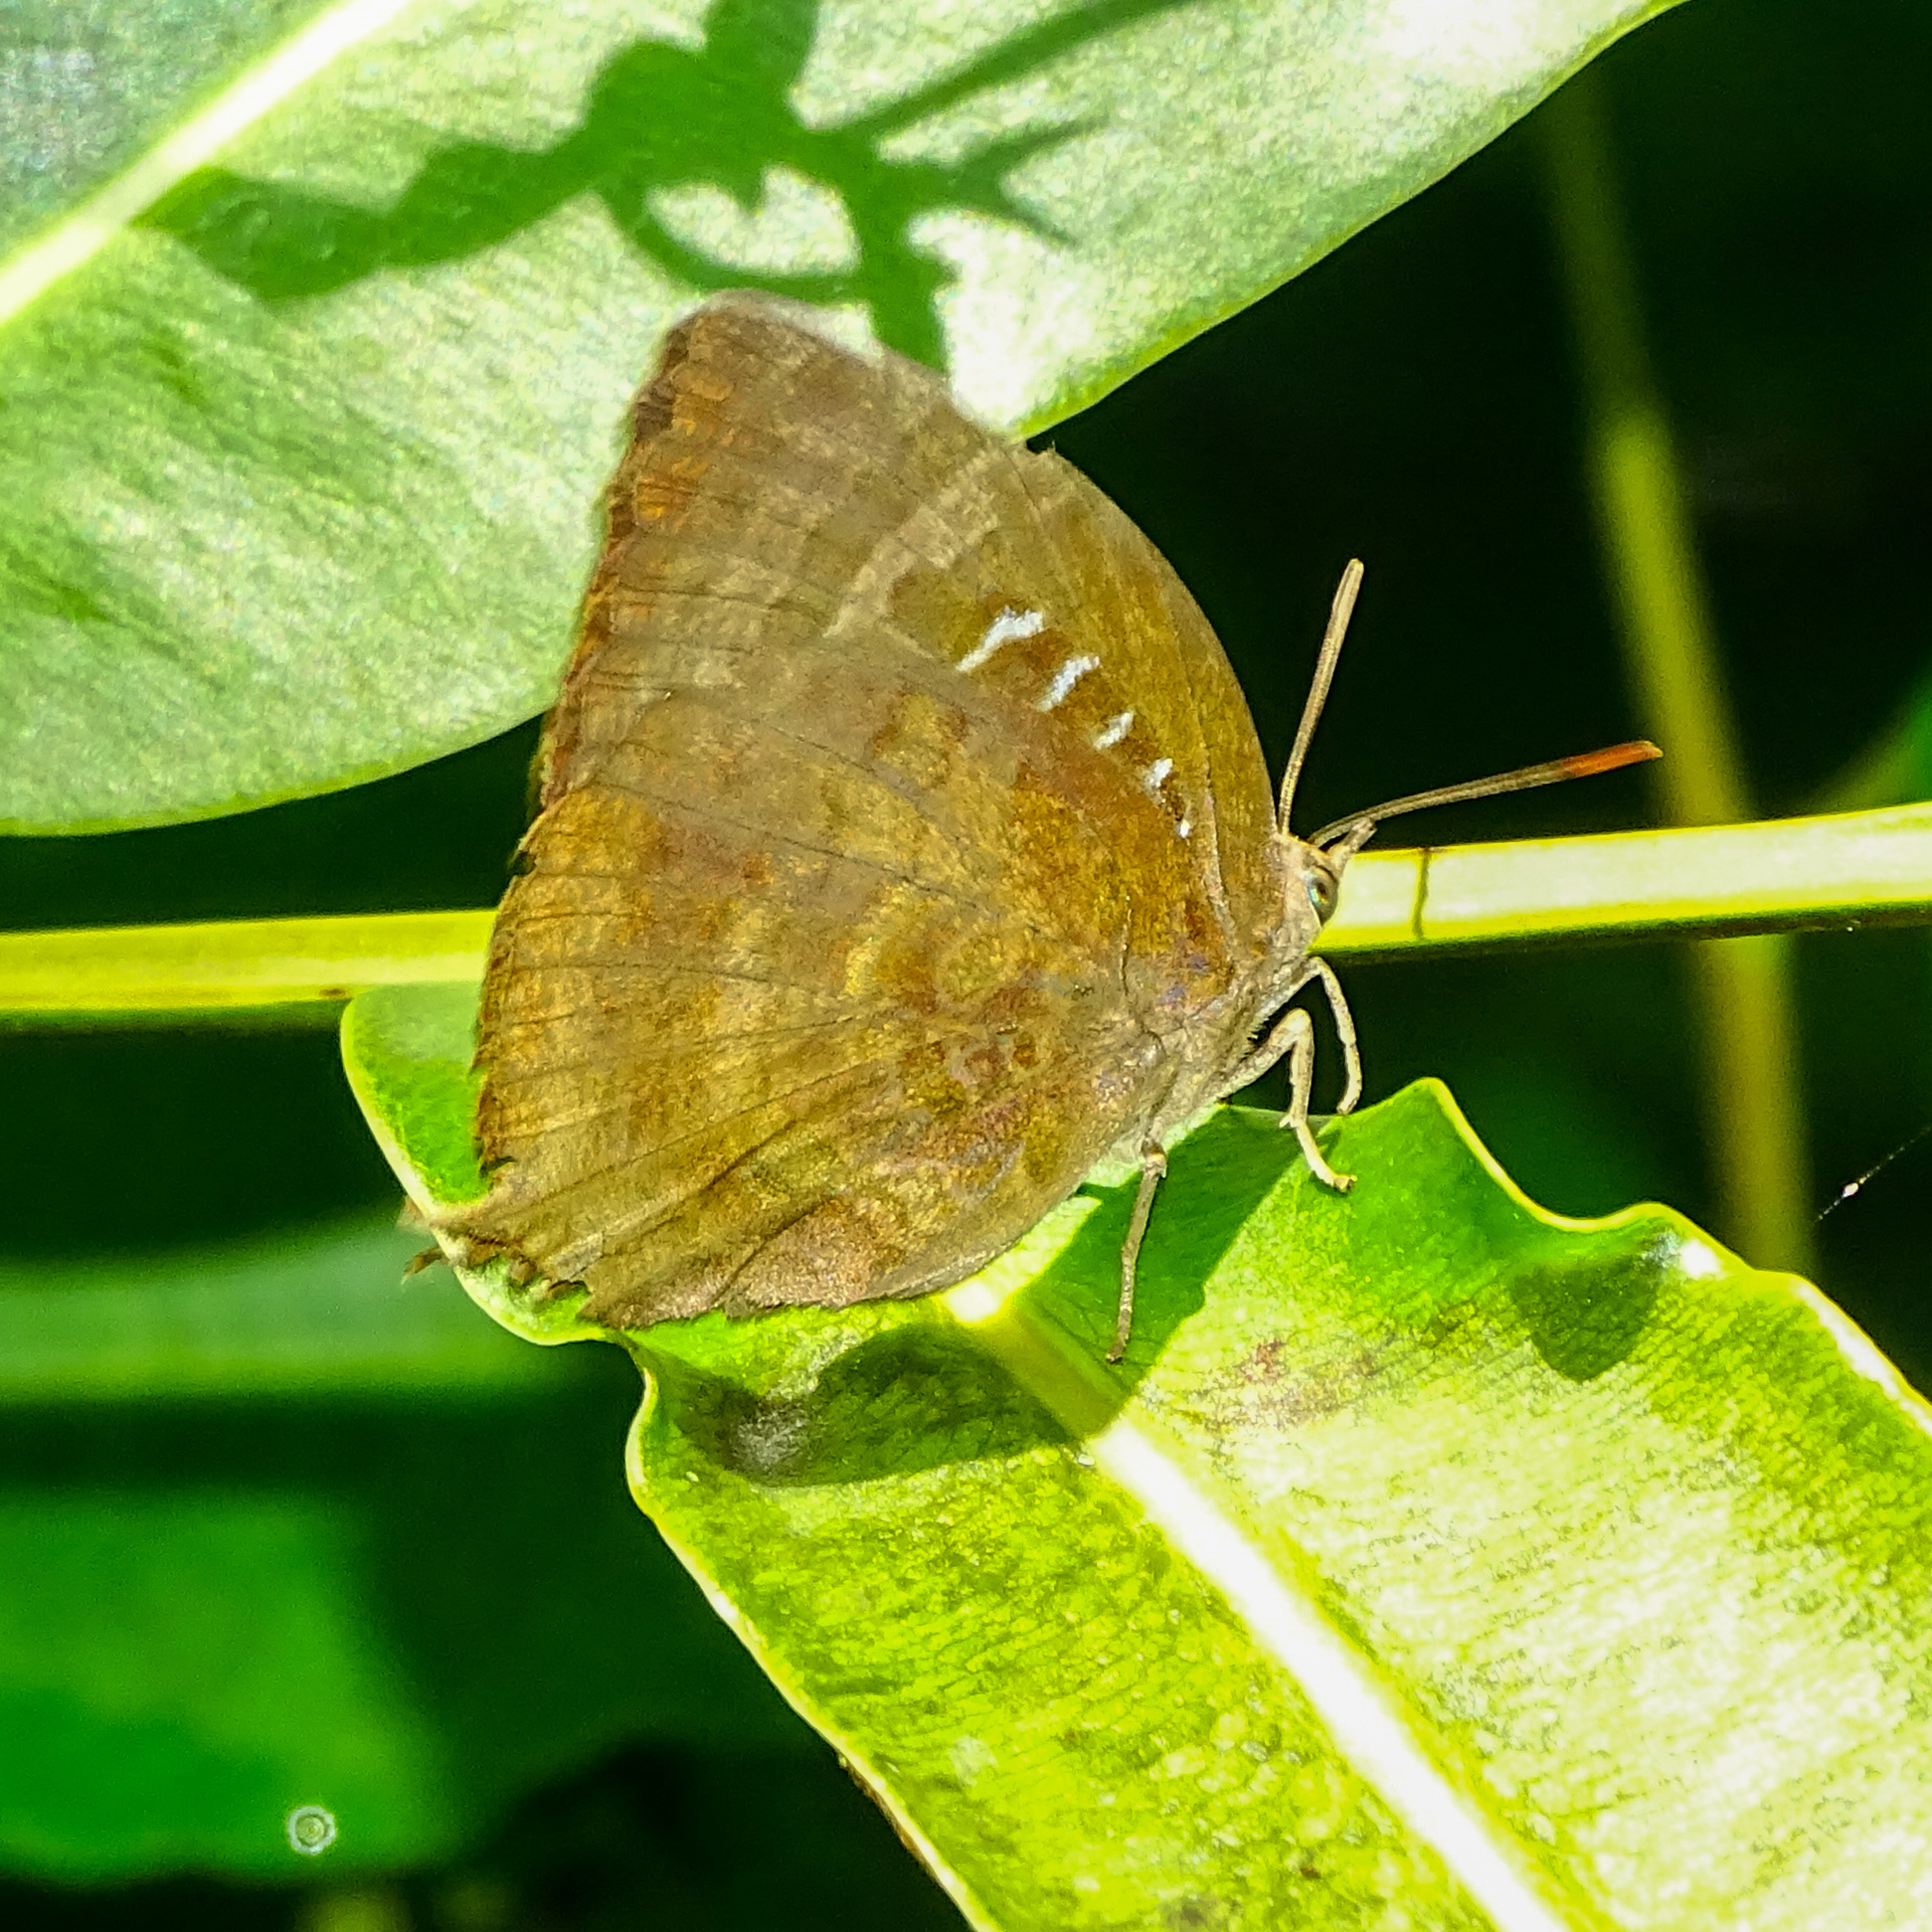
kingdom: Animalia
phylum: Arthropoda
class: Insecta
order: Lepidoptera
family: Lycaenidae
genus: Arhopala
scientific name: Arhopala centaurus
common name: Dull oak-blue
